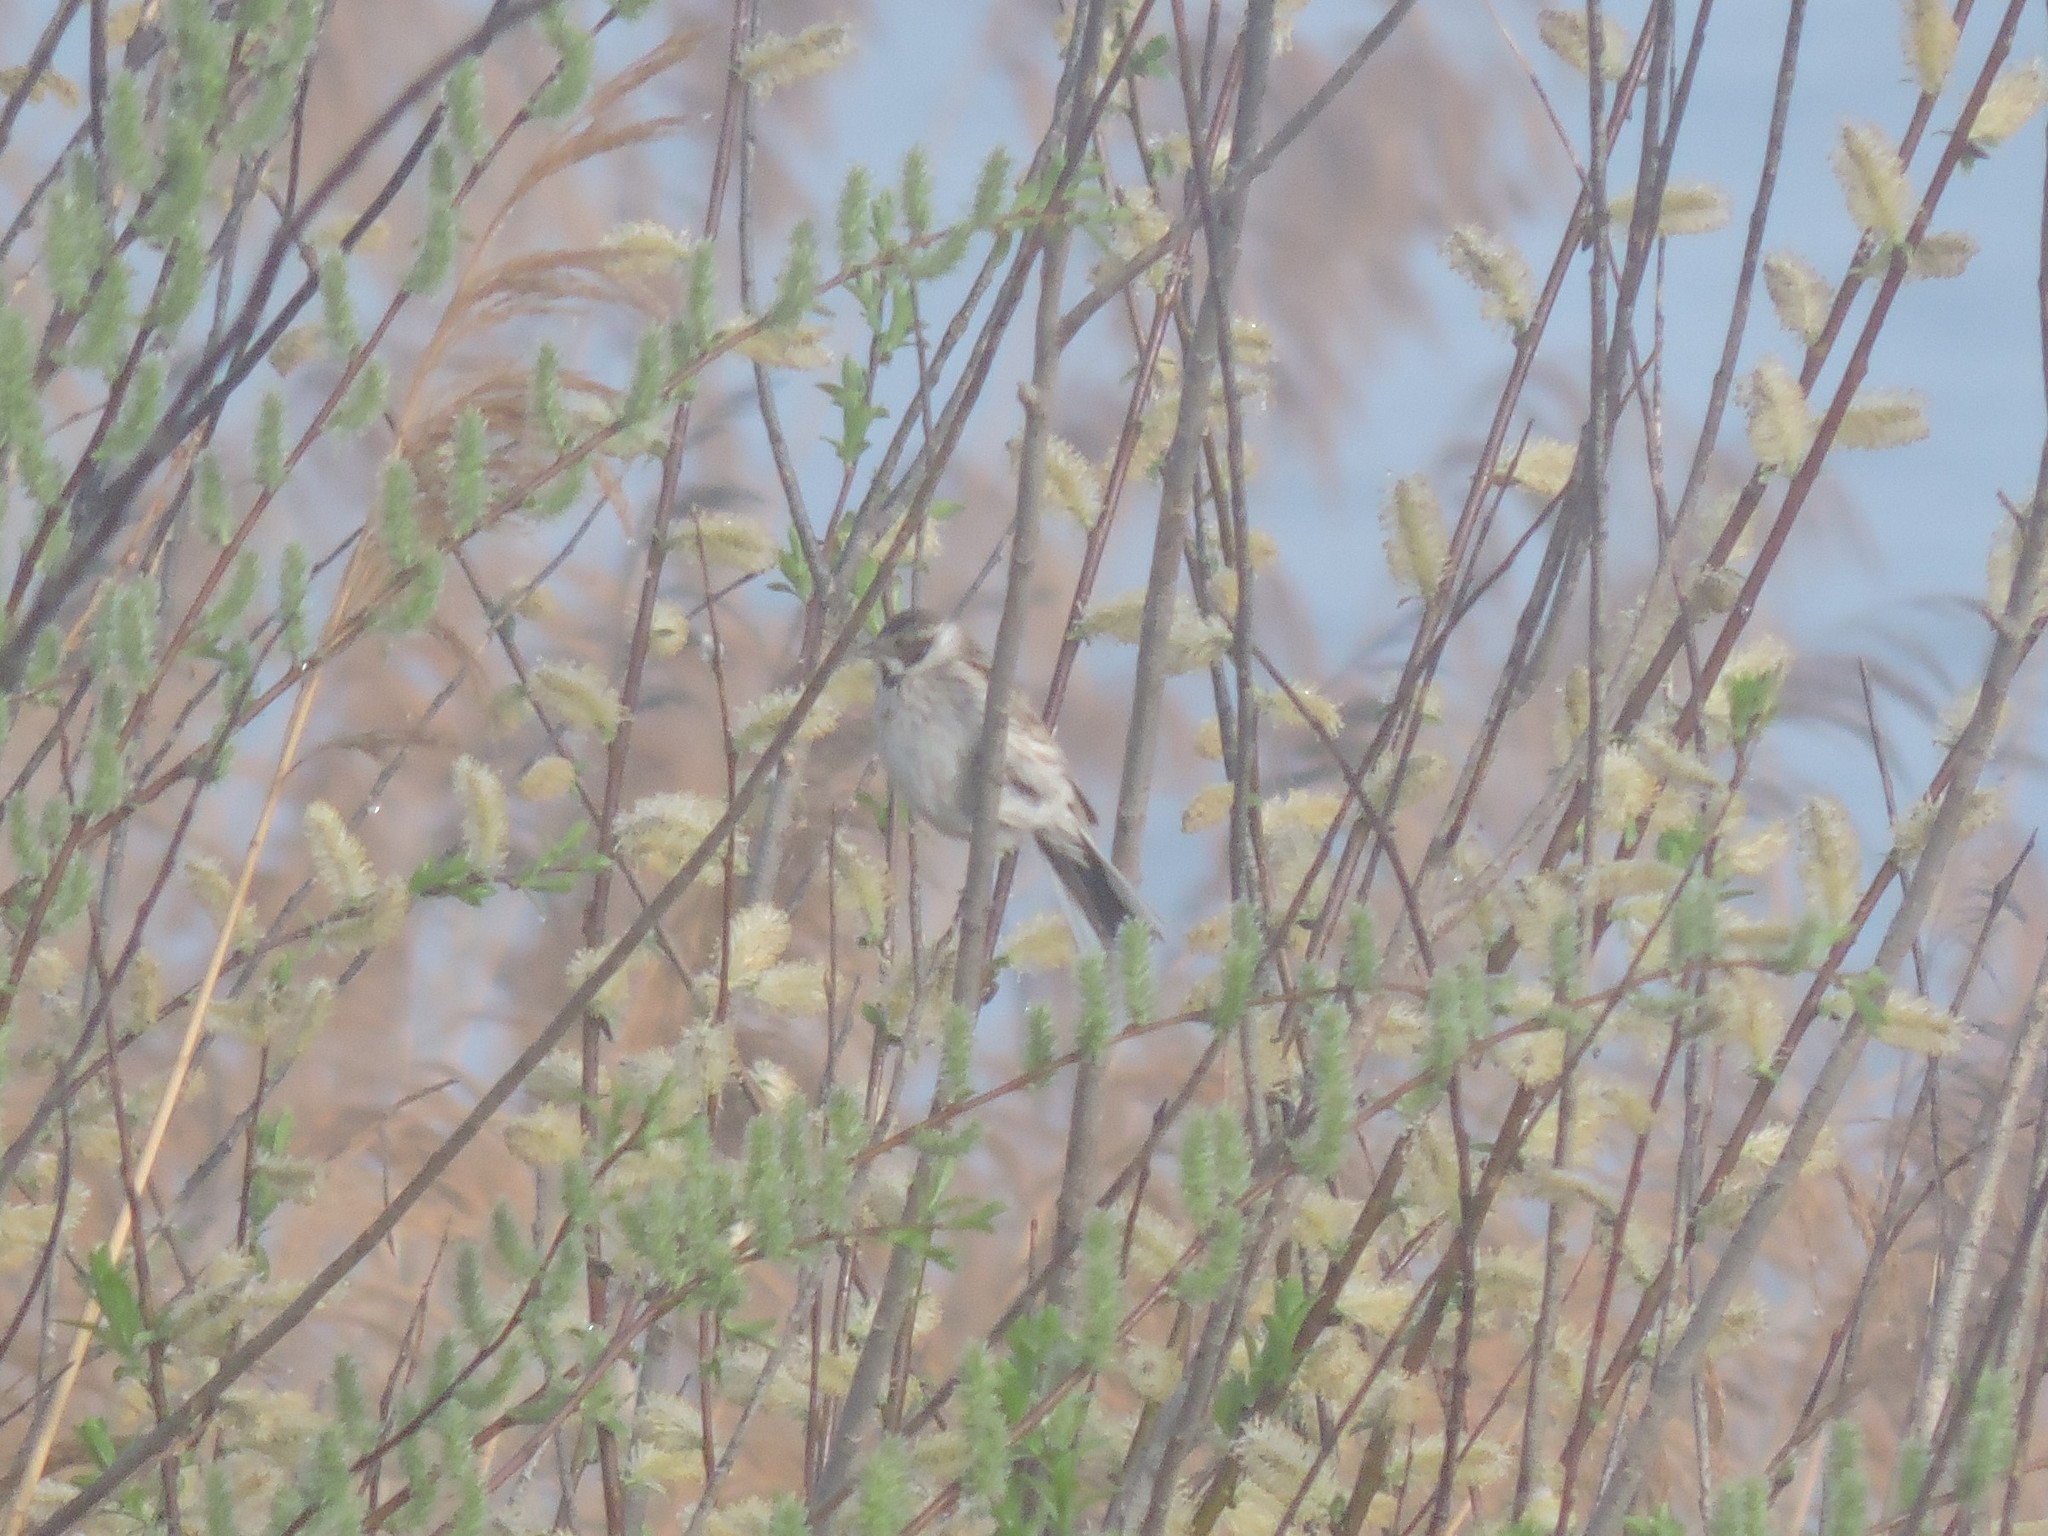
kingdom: Animalia
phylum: Chordata
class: Aves
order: Passeriformes
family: Emberizidae
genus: Emberiza
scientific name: Emberiza schoeniclus
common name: Reed bunting
